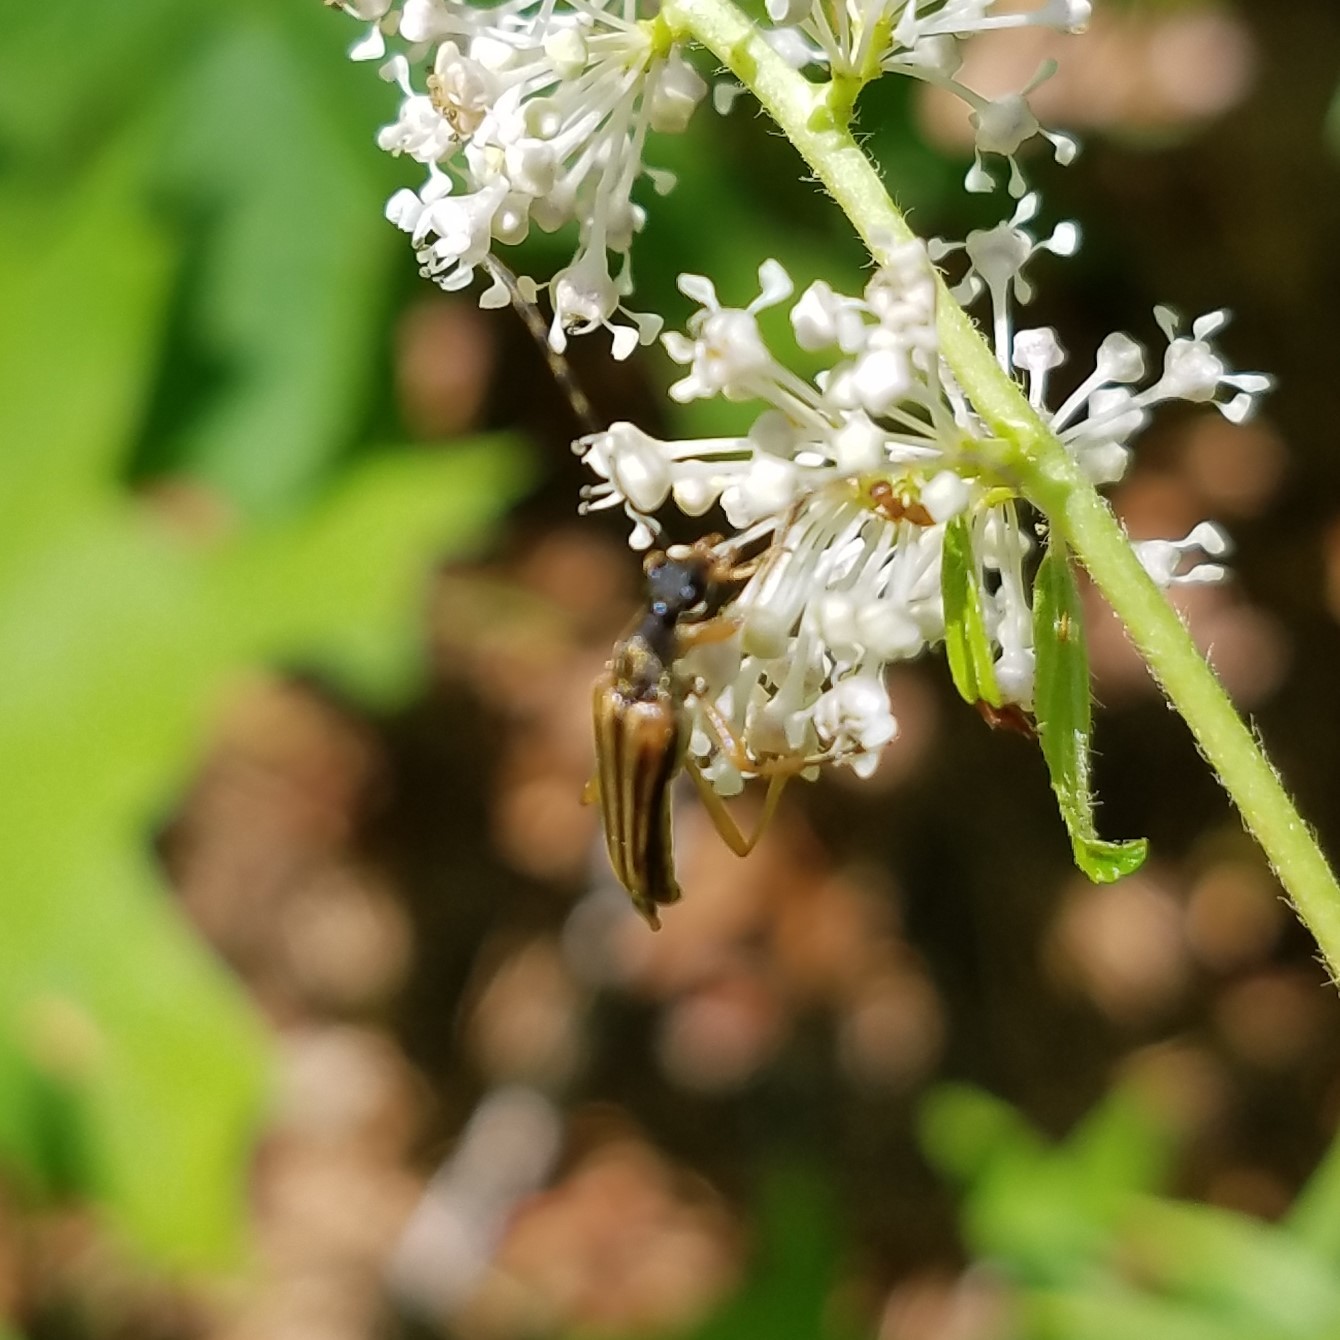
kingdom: Animalia
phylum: Arthropoda
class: Insecta
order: Coleoptera
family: Cerambycidae
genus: Analeptura
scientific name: Analeptura lineola
